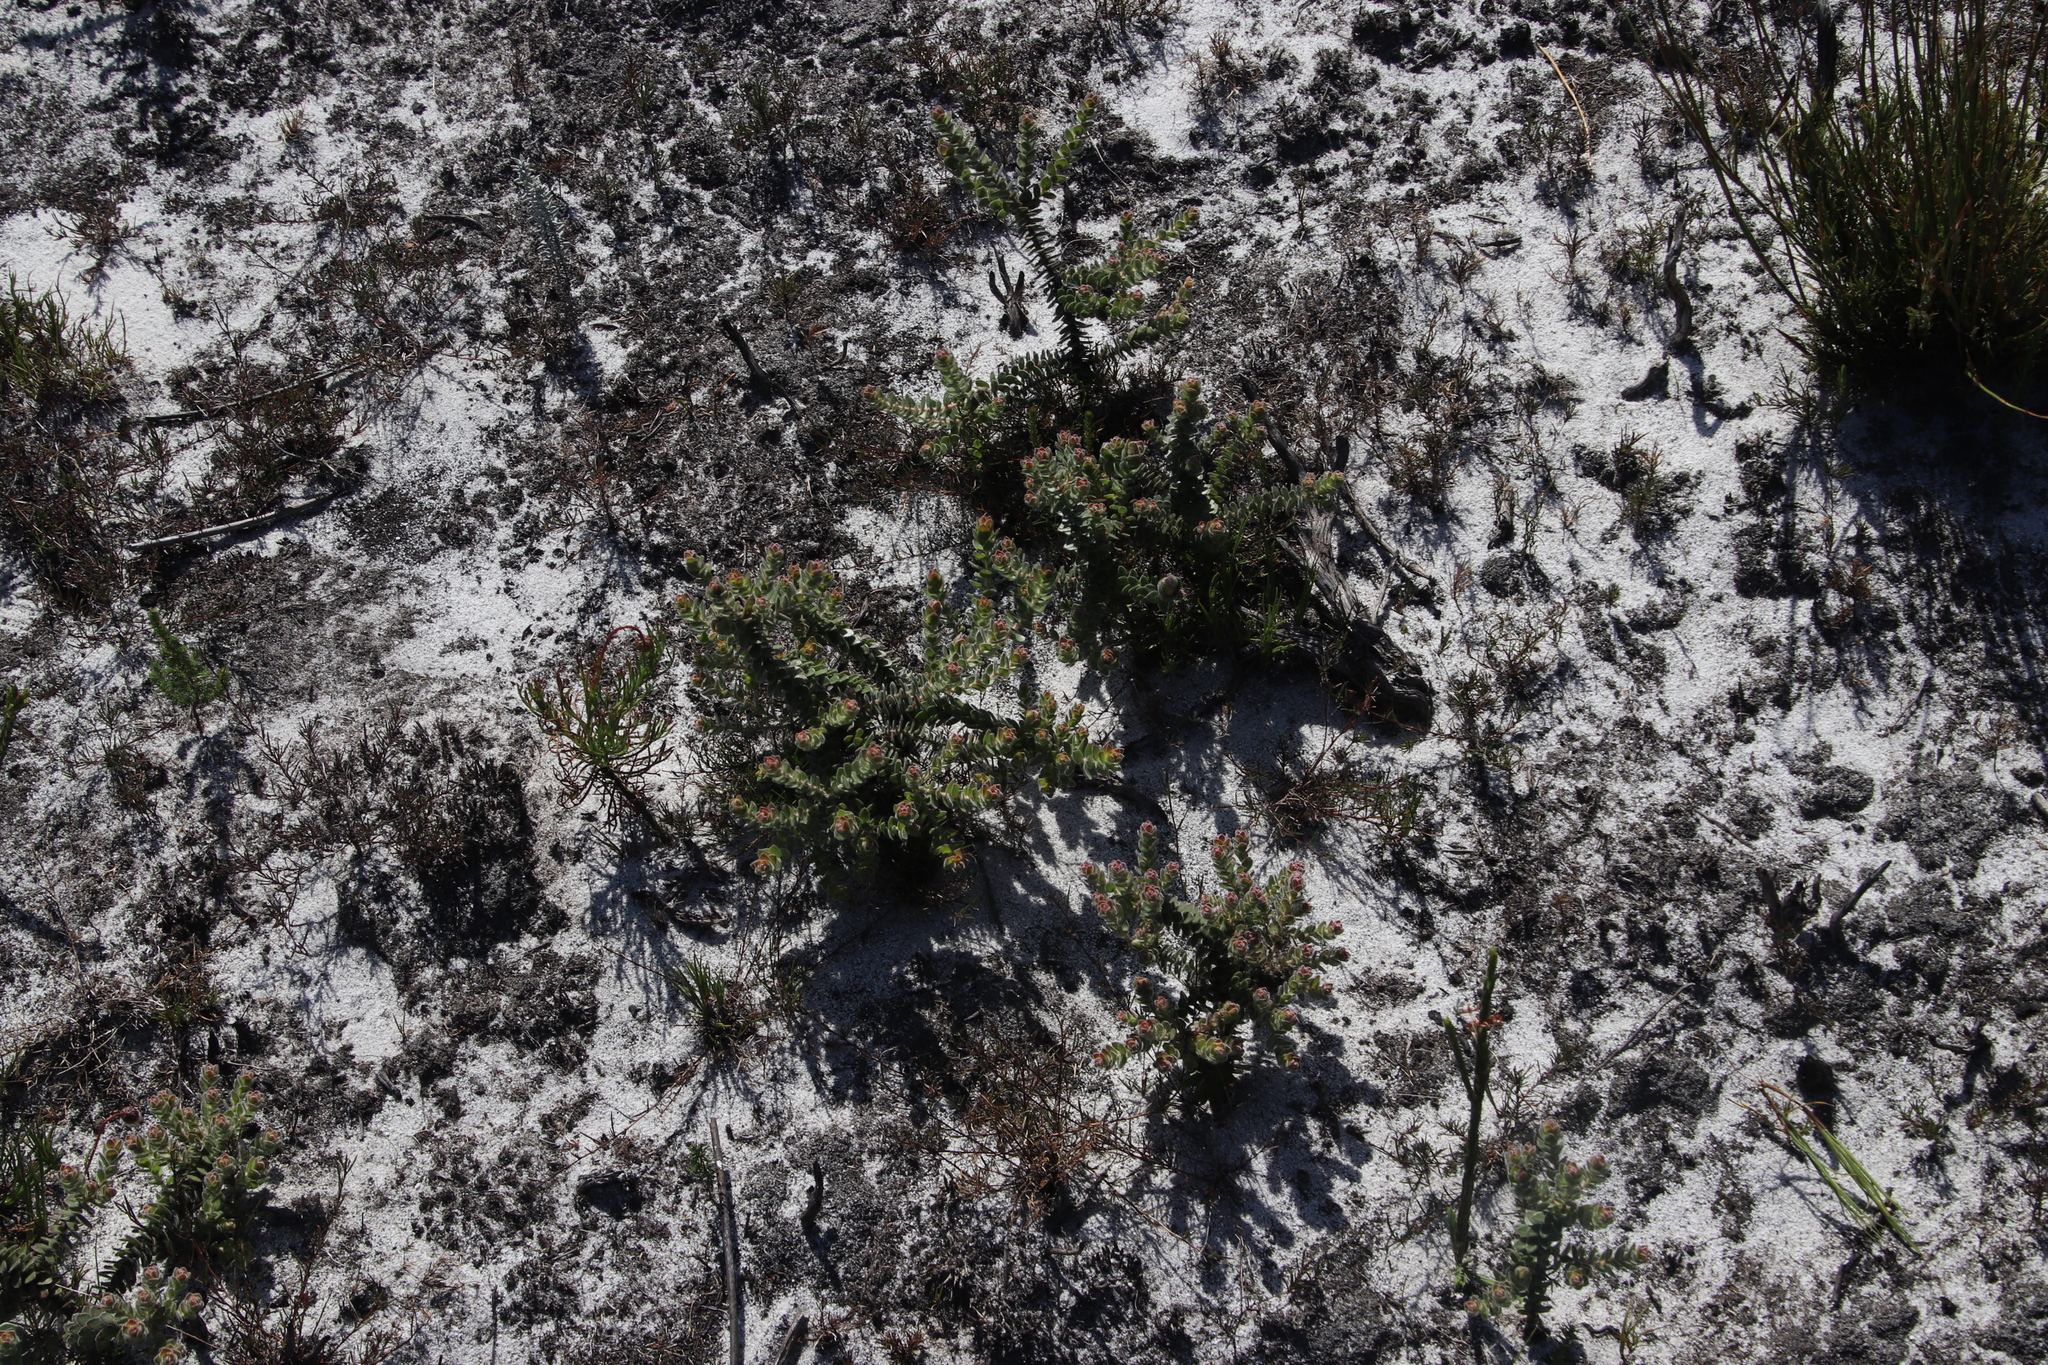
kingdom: Plantae
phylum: Tracheophyta
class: Magnoliopsida
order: Proteales
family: Proteaceae
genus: Diastella
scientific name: Diastella divaricata
